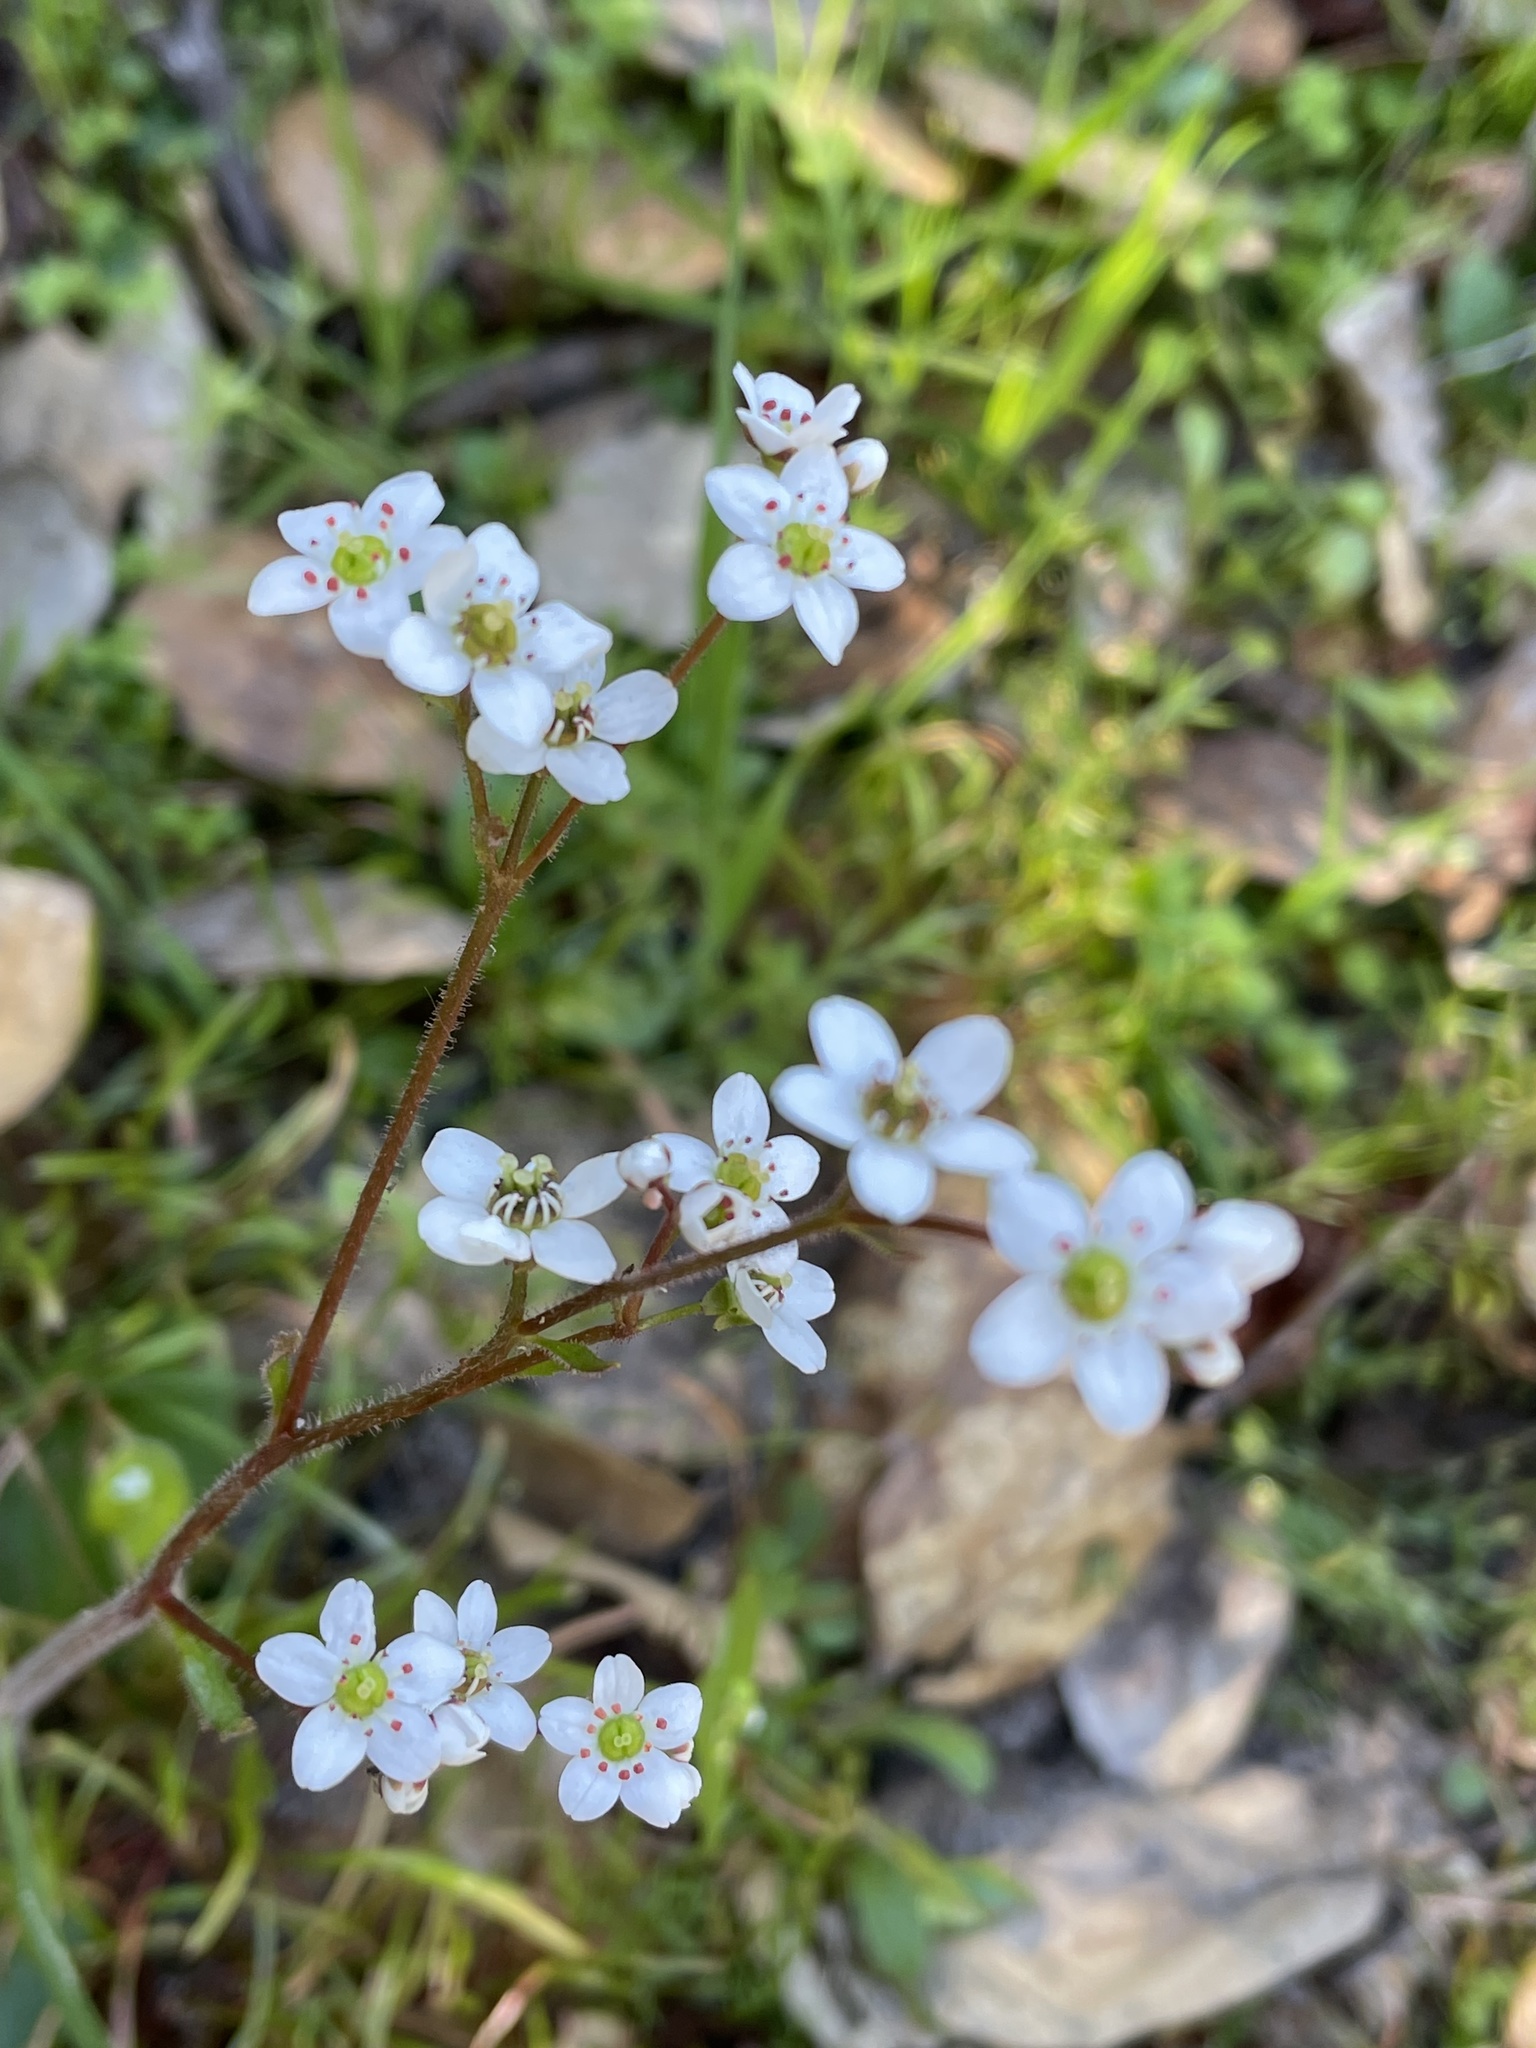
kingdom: Plantae
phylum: Tracheophyta
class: Magnoliopsida
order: Saxifragales
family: Saxifragaceae
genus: Micranthes
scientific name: Micranthes californica
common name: California saxifrage
